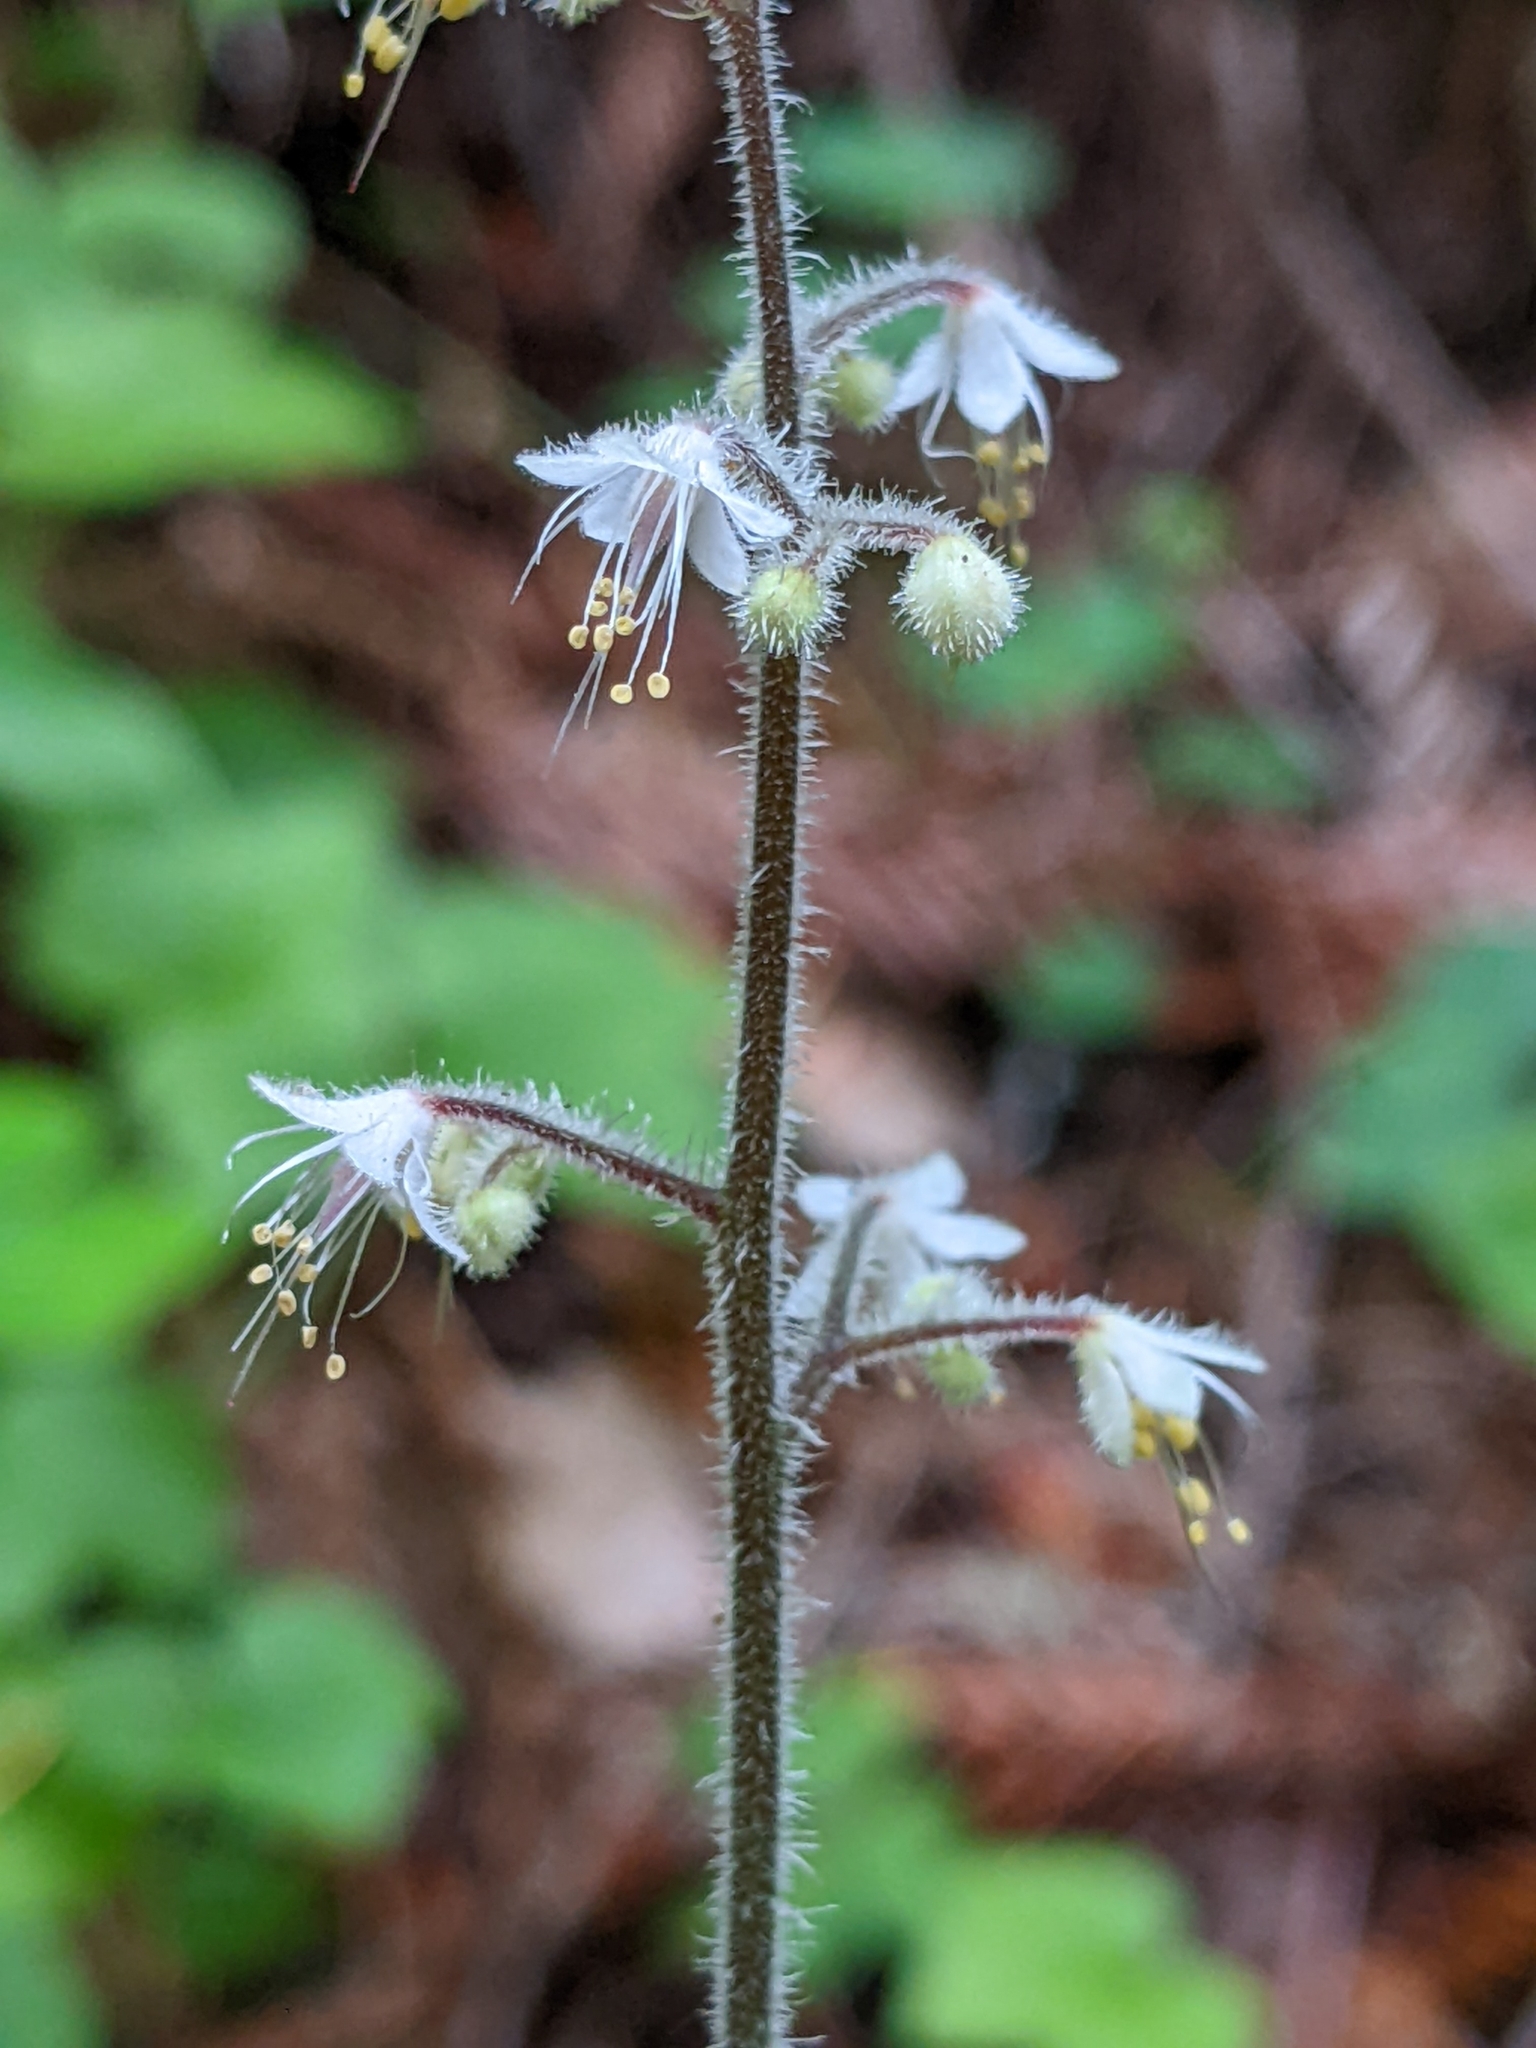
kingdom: Plantae
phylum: Tracheophyta
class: Magnoliopsida
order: Saxifragales
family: Saxifragaceae
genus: Tiarella
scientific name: Tiarella trifoliata
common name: Sugar-scoop
